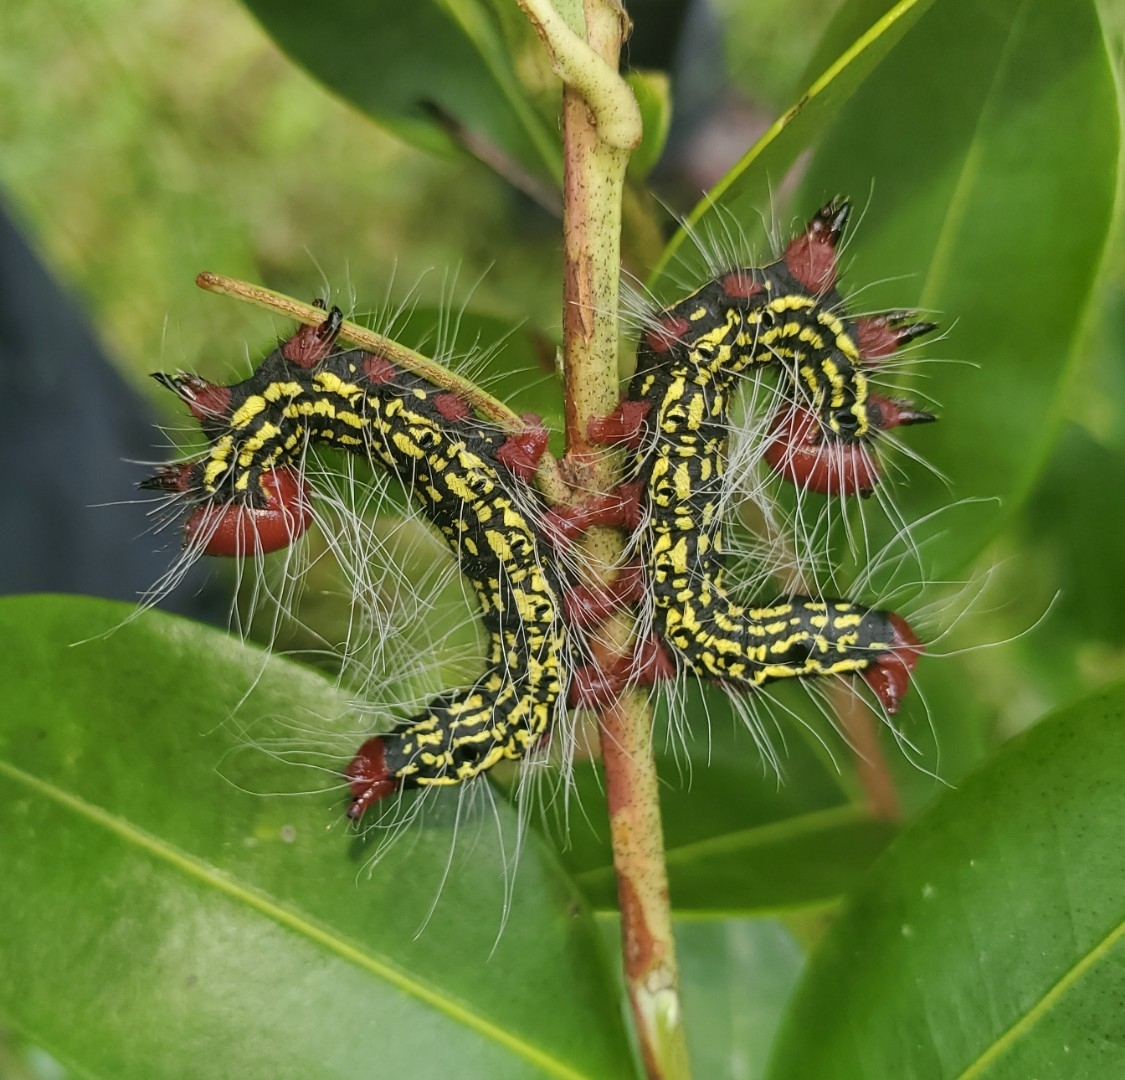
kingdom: Animalia
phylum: Arthropoda
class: Insecta
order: Lepidoptera
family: Notodontidae
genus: Datana
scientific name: Datana major
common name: Azalea caterpillar
